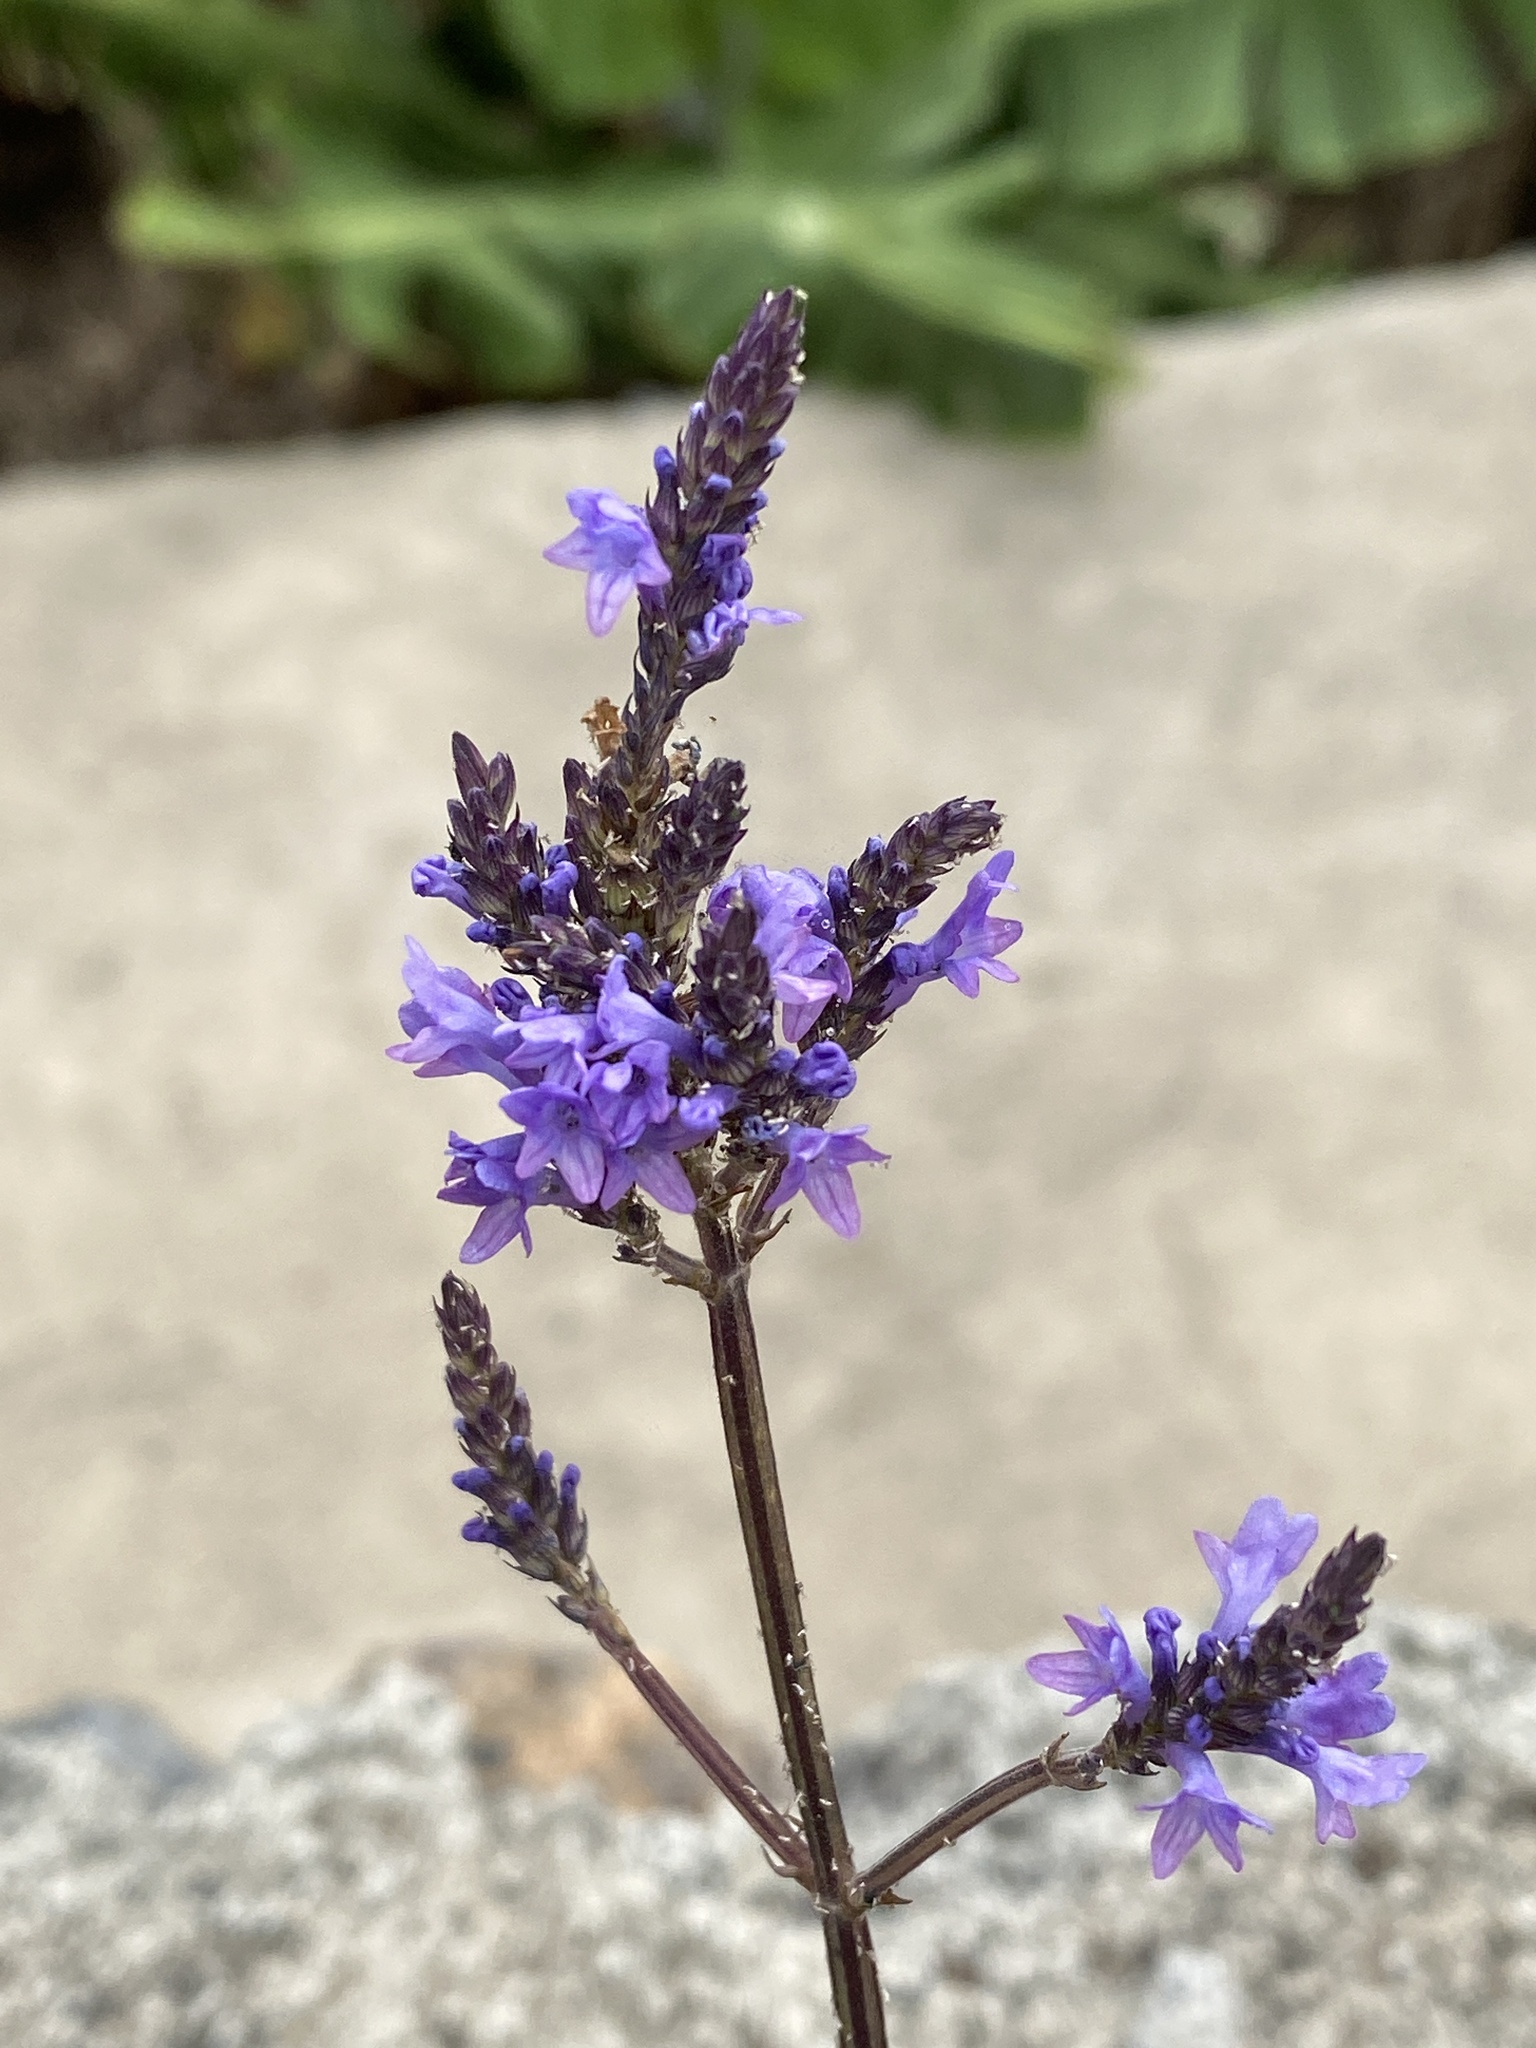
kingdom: Plantae
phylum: Tracheophyta
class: Magnoliopsida
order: Lamiales
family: Lamiaceae
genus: Lavandula
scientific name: Lavandula canariensis
